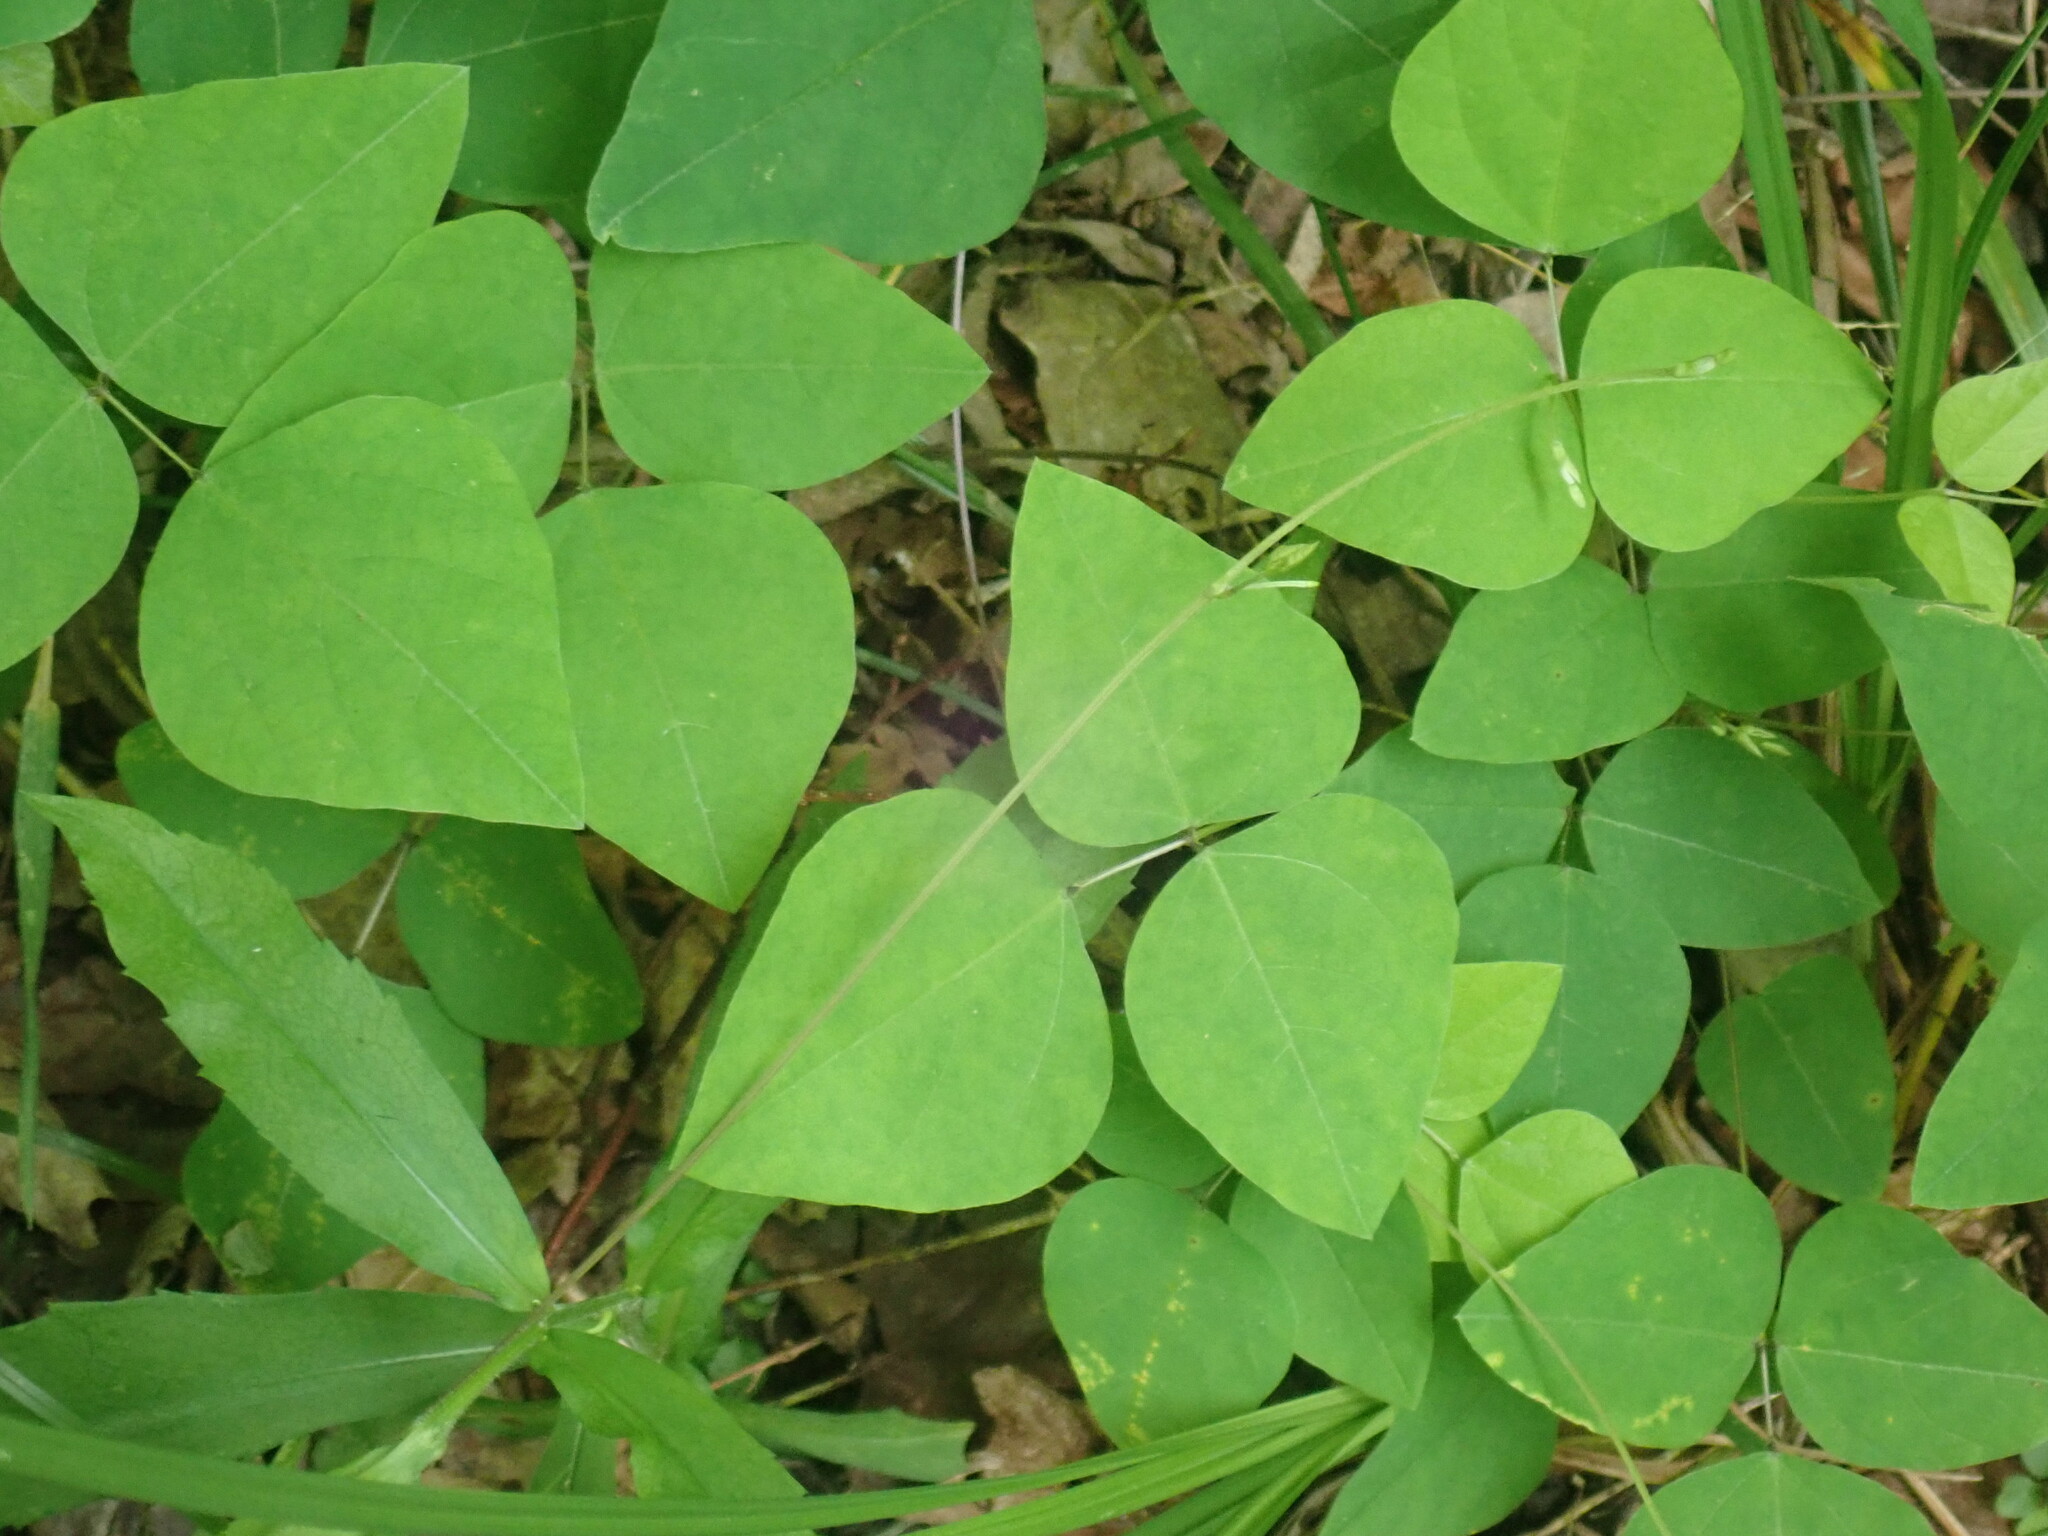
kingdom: Plantae
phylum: Tracheophyta
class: Magnoliopsida
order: Fabales
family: Fabaceae
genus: Amphicarpaea
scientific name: Amphicarpaea bracteata
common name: American hog peanut
